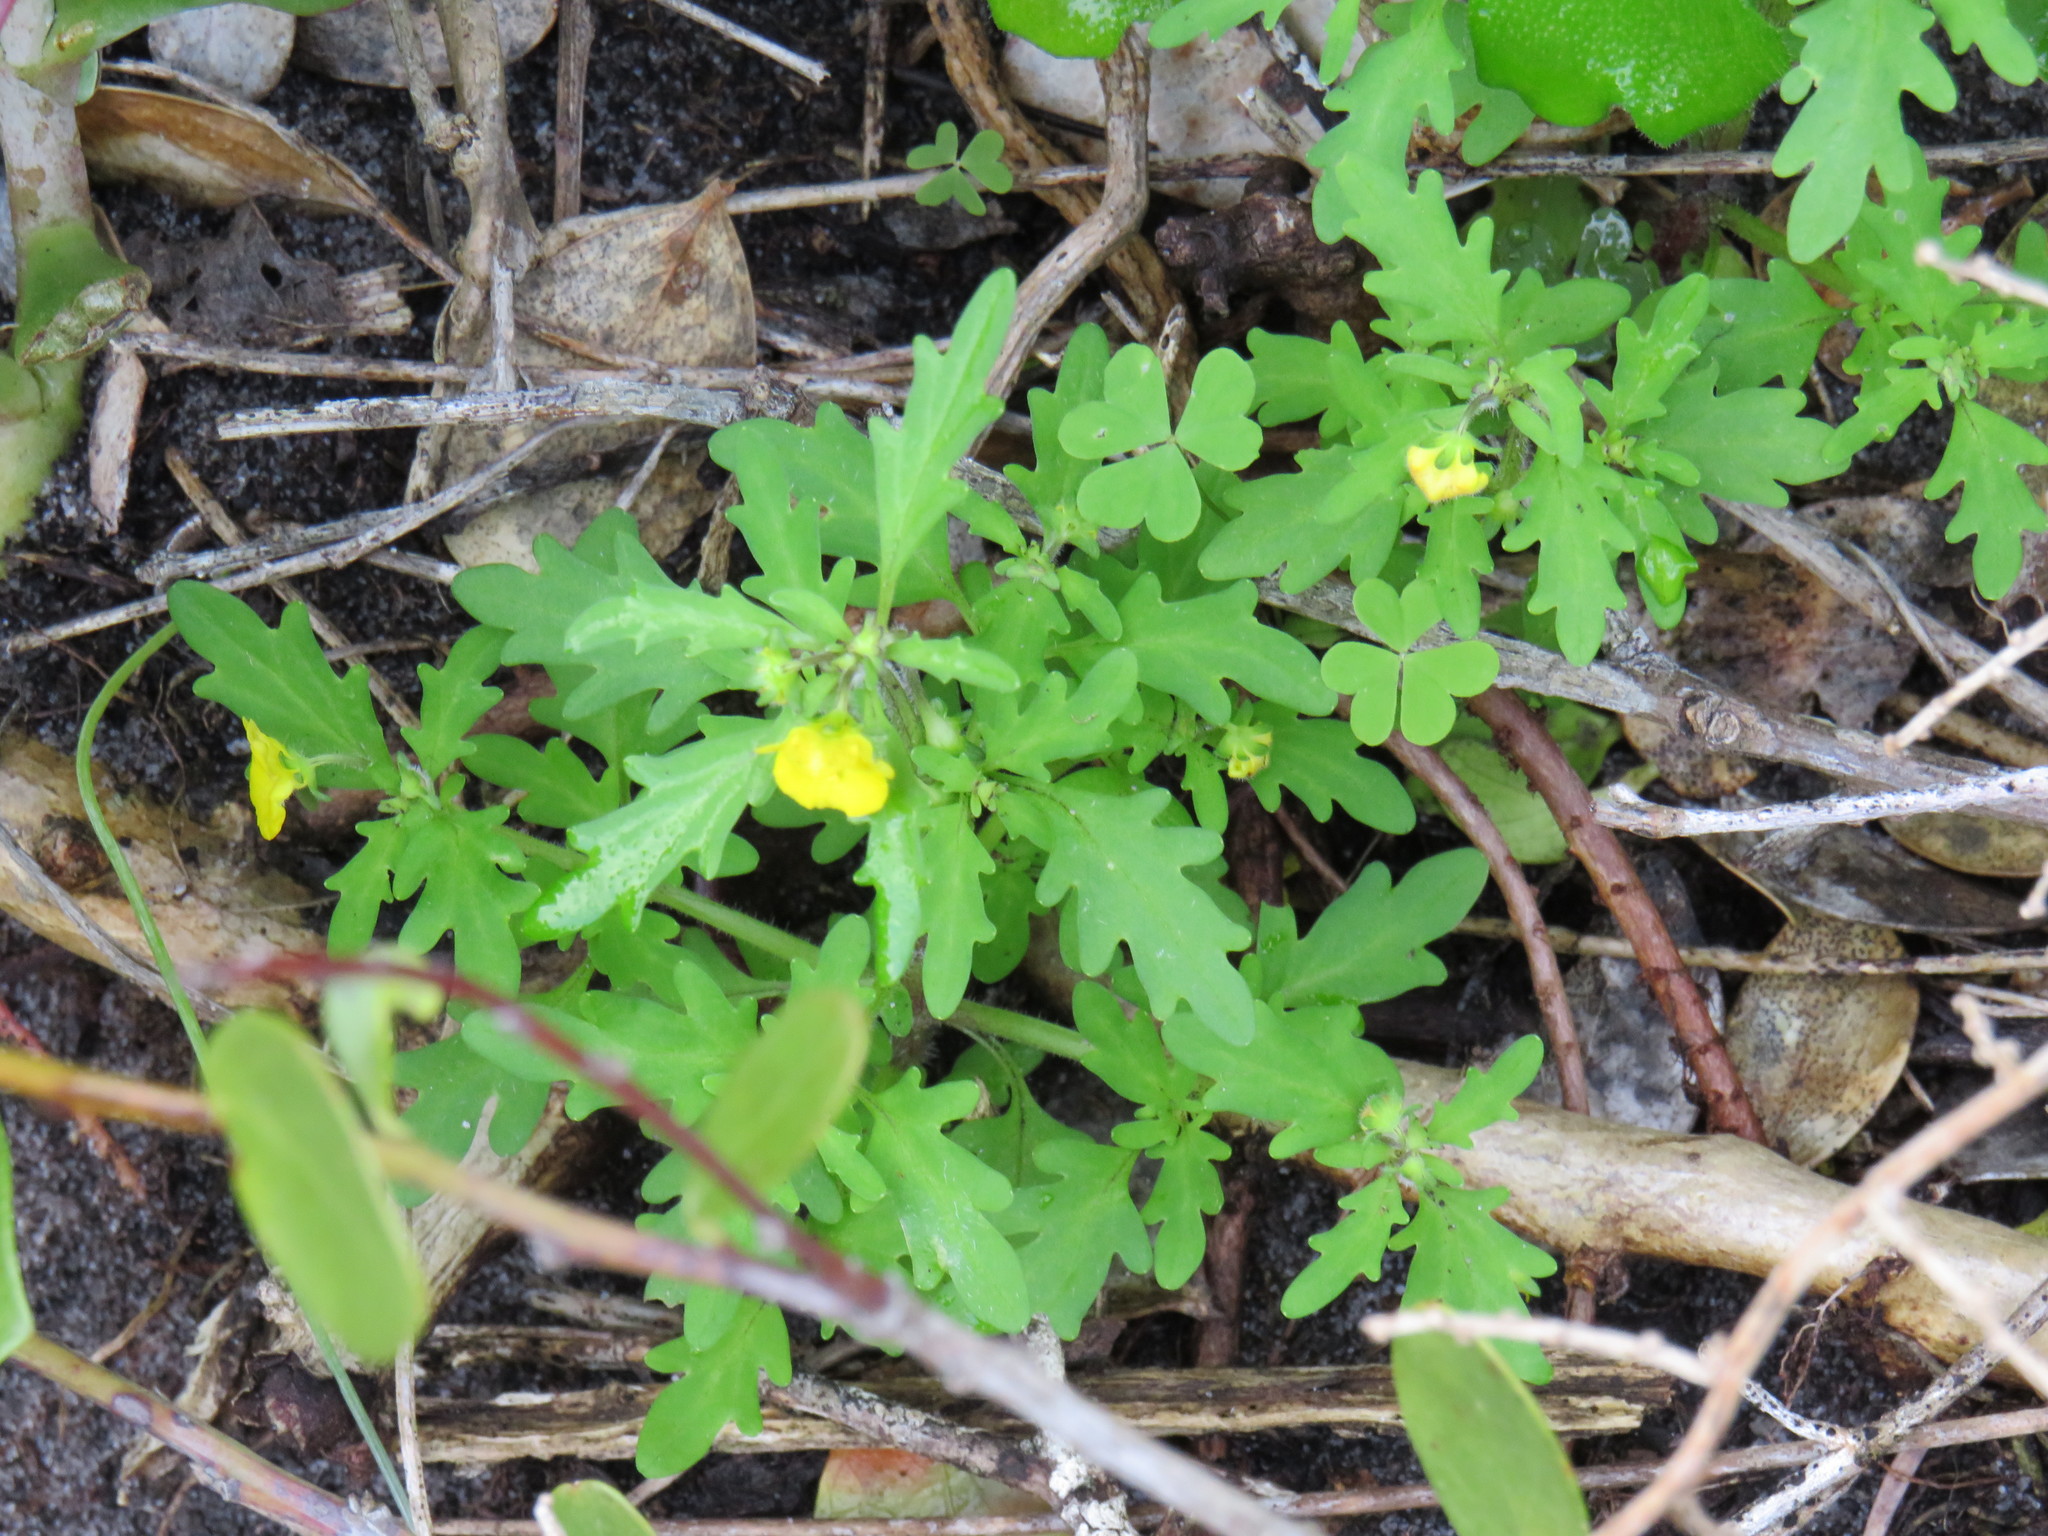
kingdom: Plantae
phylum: Tracheophyta
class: Magnoliopsida
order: Lamiales
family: Scrophulariaceae
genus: Hemimeris
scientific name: Hemimeris racemosa
